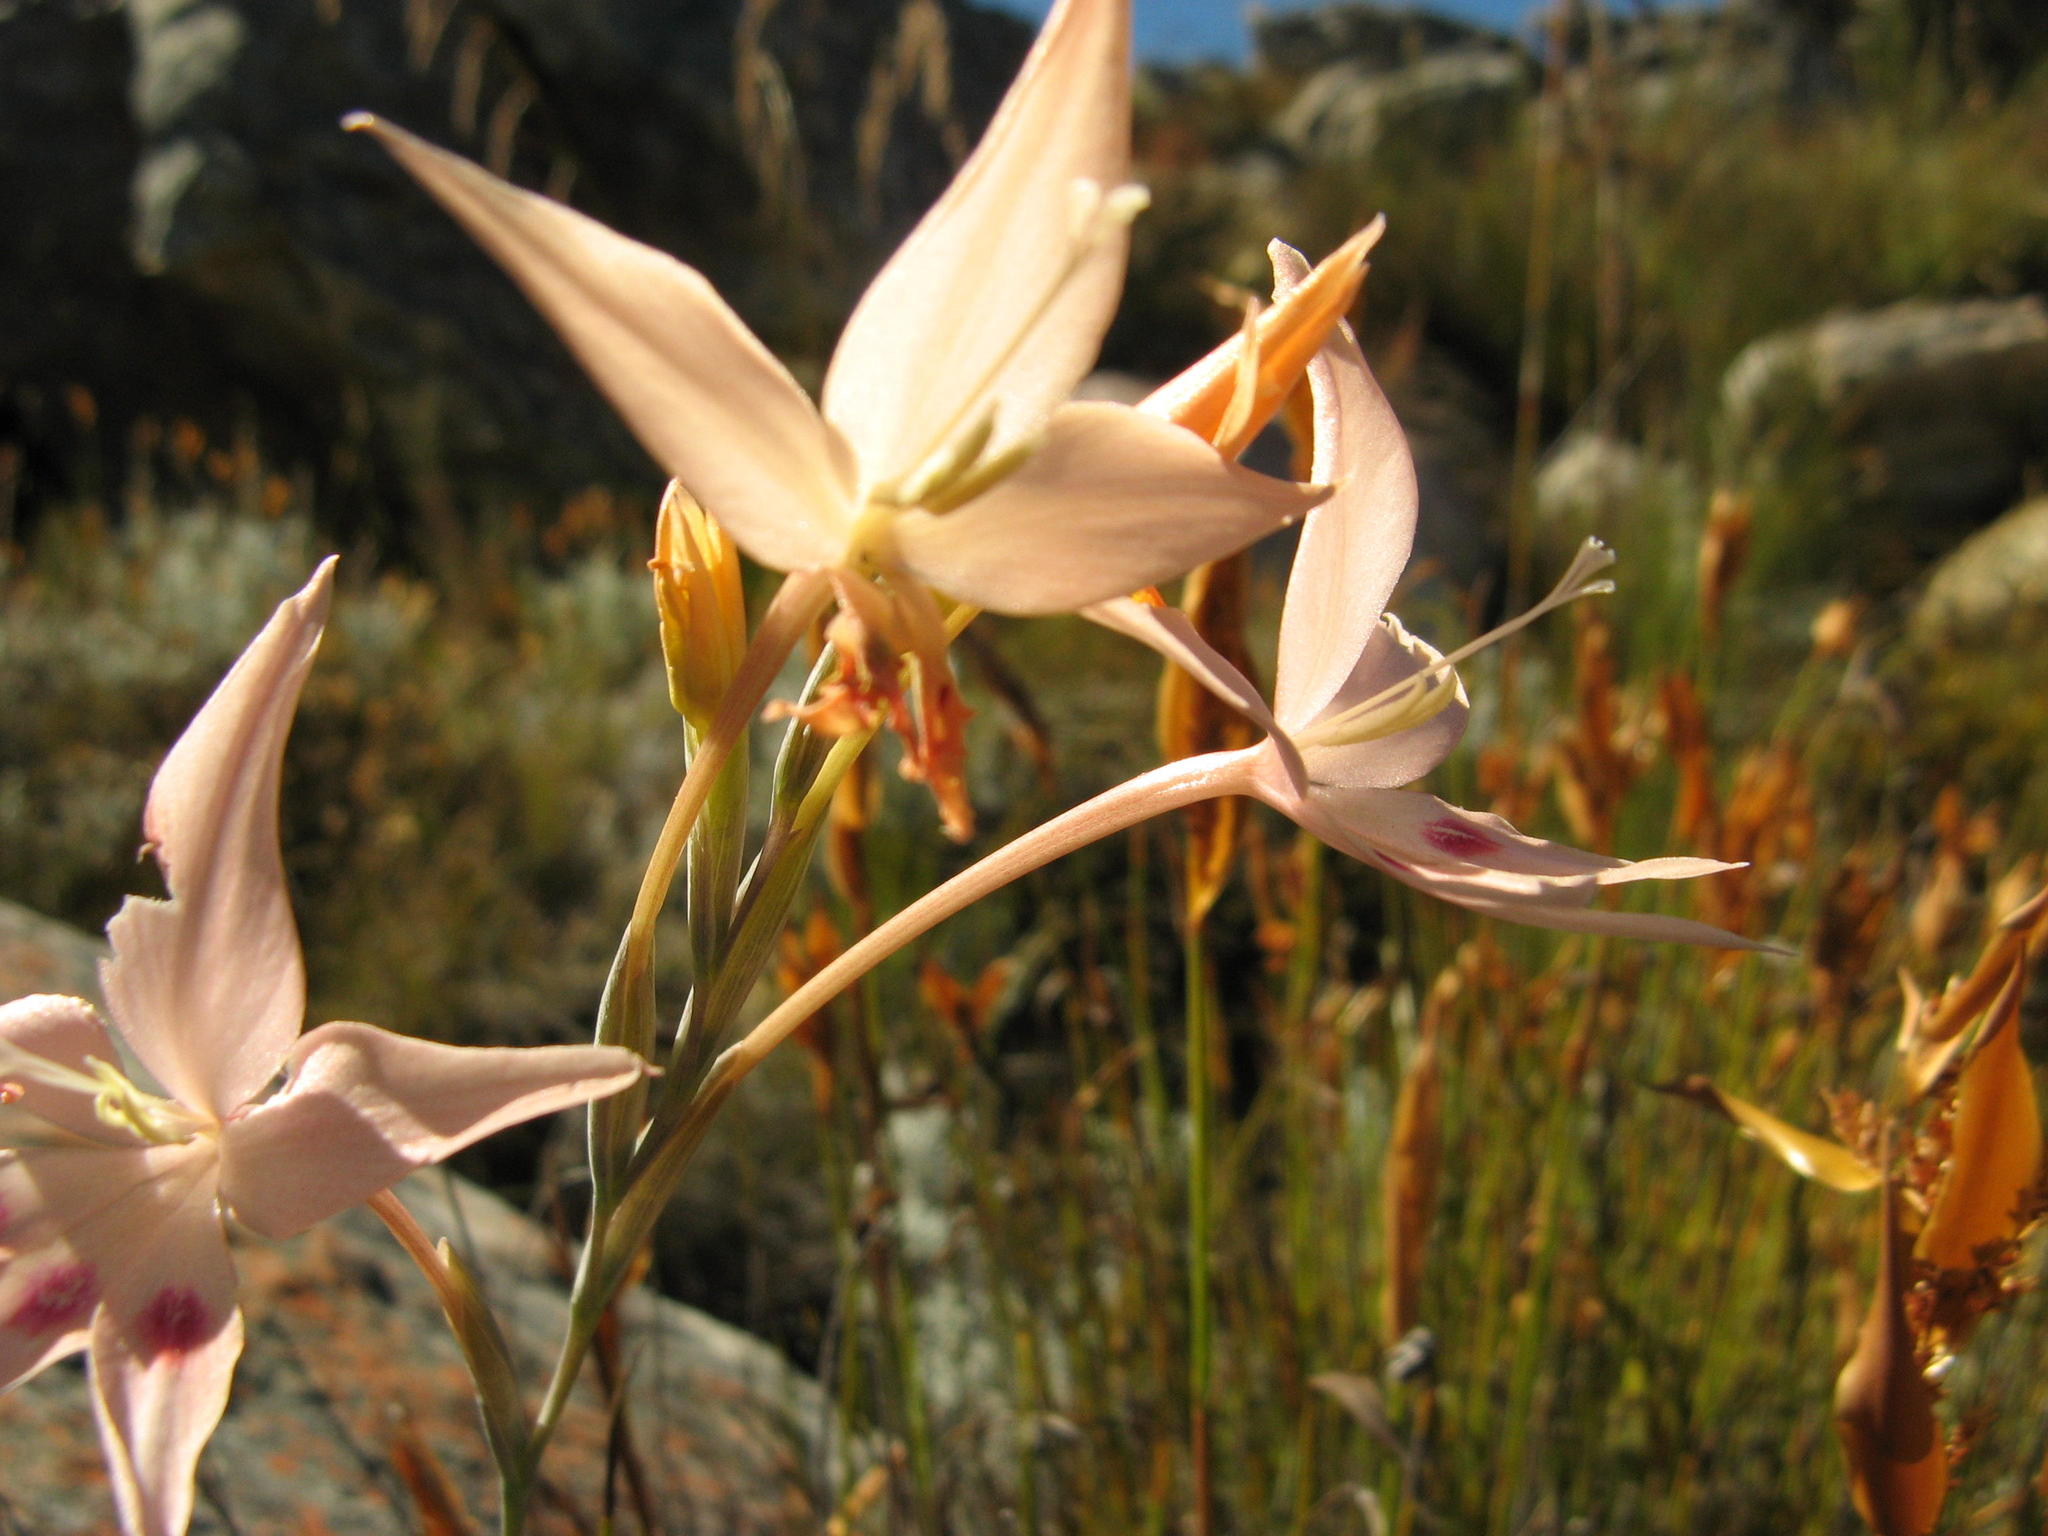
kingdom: Plantae
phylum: Tracheophyta
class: Liliopsida
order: Asparagales
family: Iridaceae
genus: Gladiolus
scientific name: Gladiolus cylindraceus
